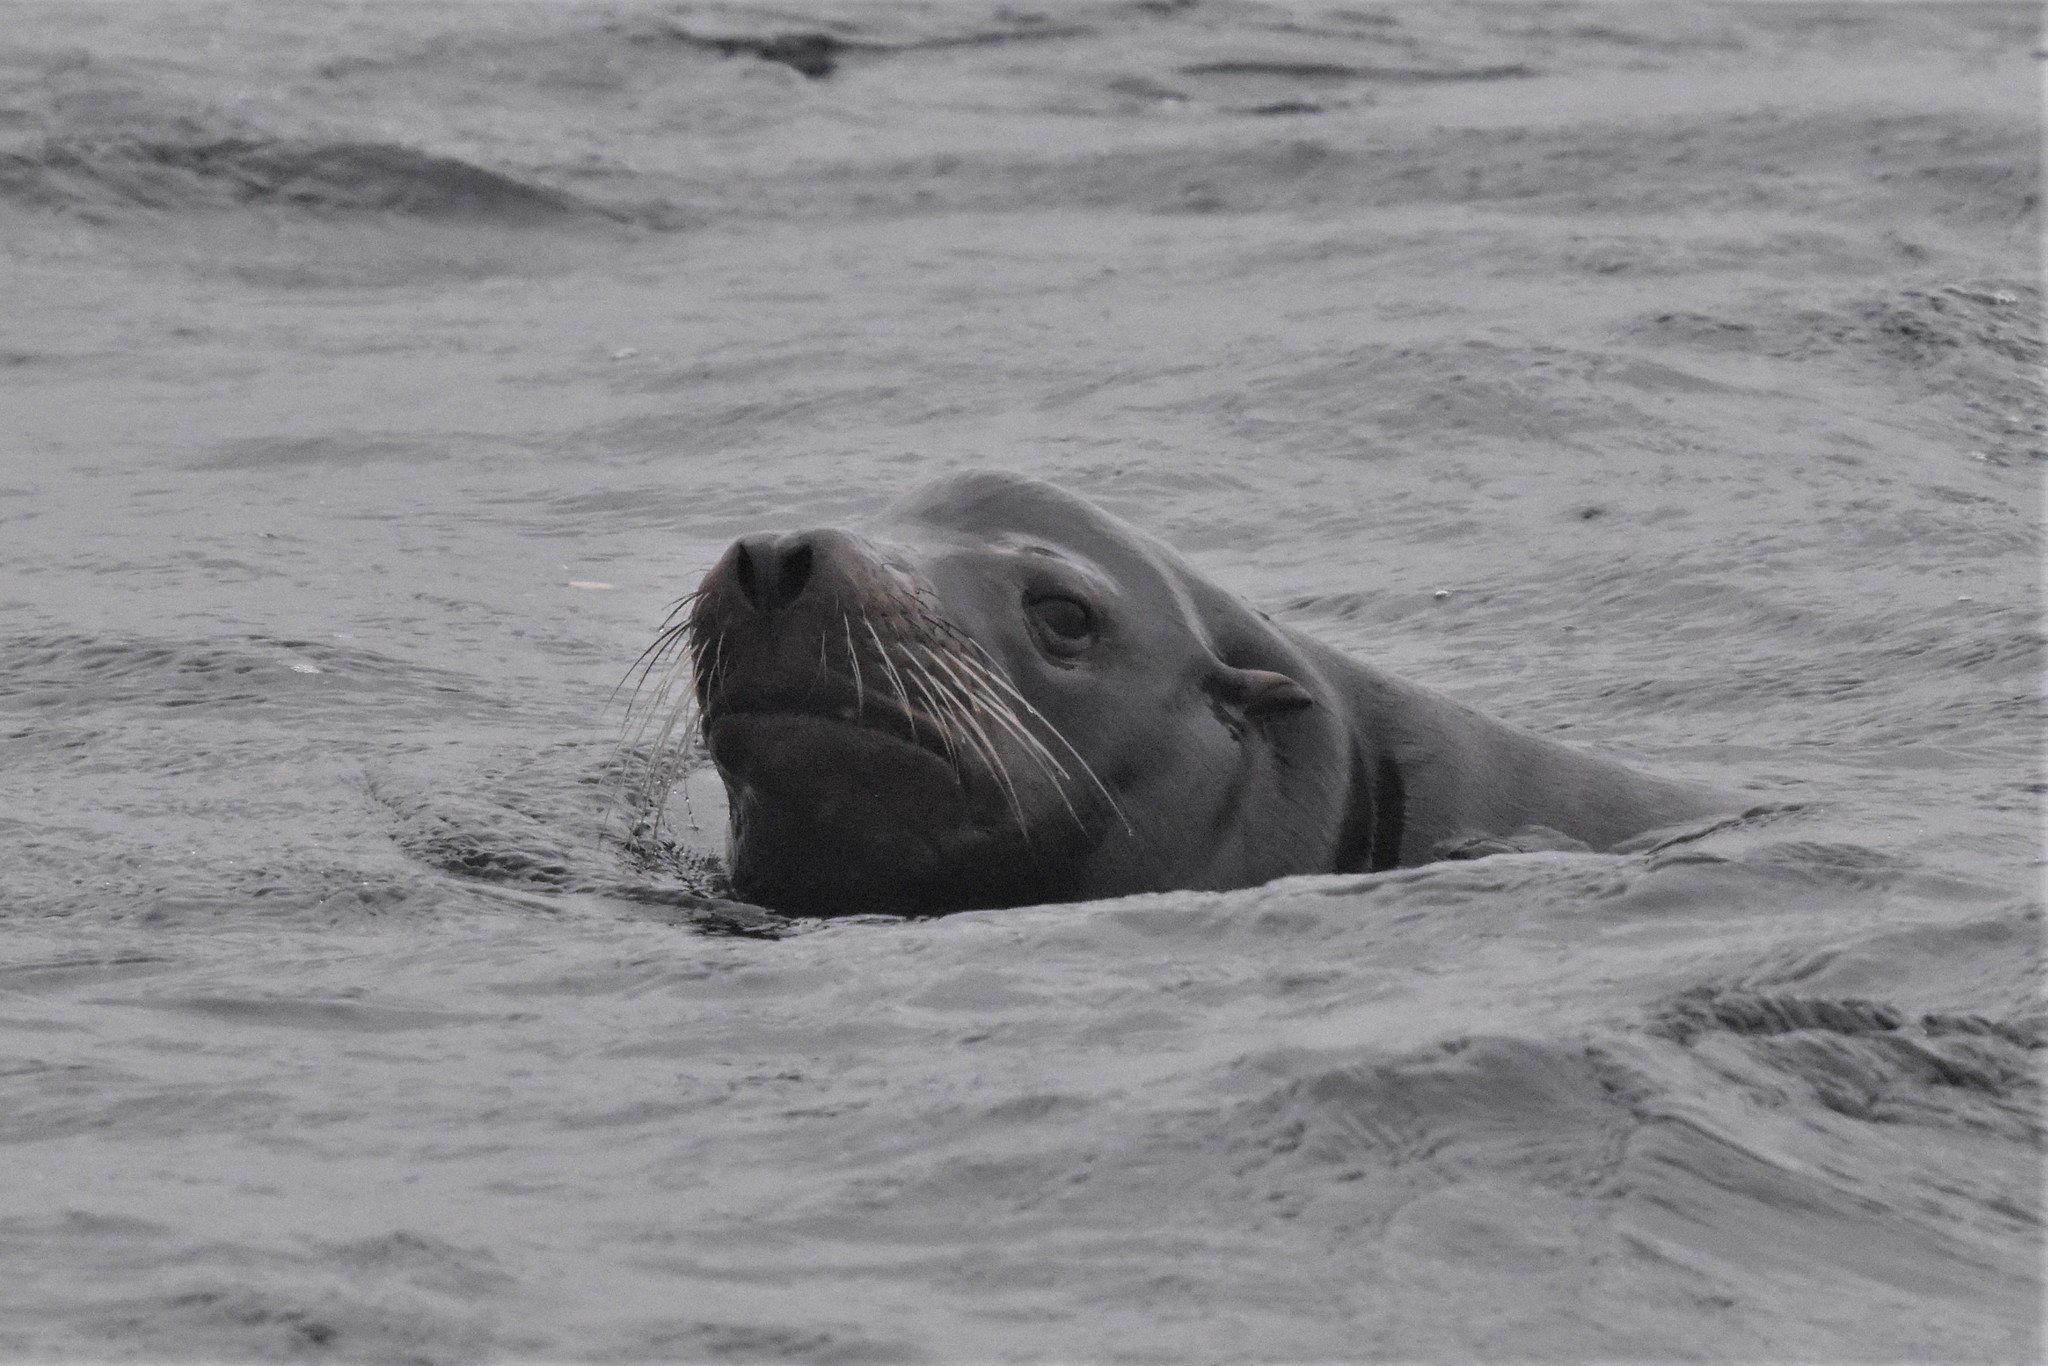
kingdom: Animalia
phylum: Chordata
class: Mammalia
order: Carnivora
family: Otariidae
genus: Zalophus
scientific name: Zalophus californianus
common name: California sea lion
